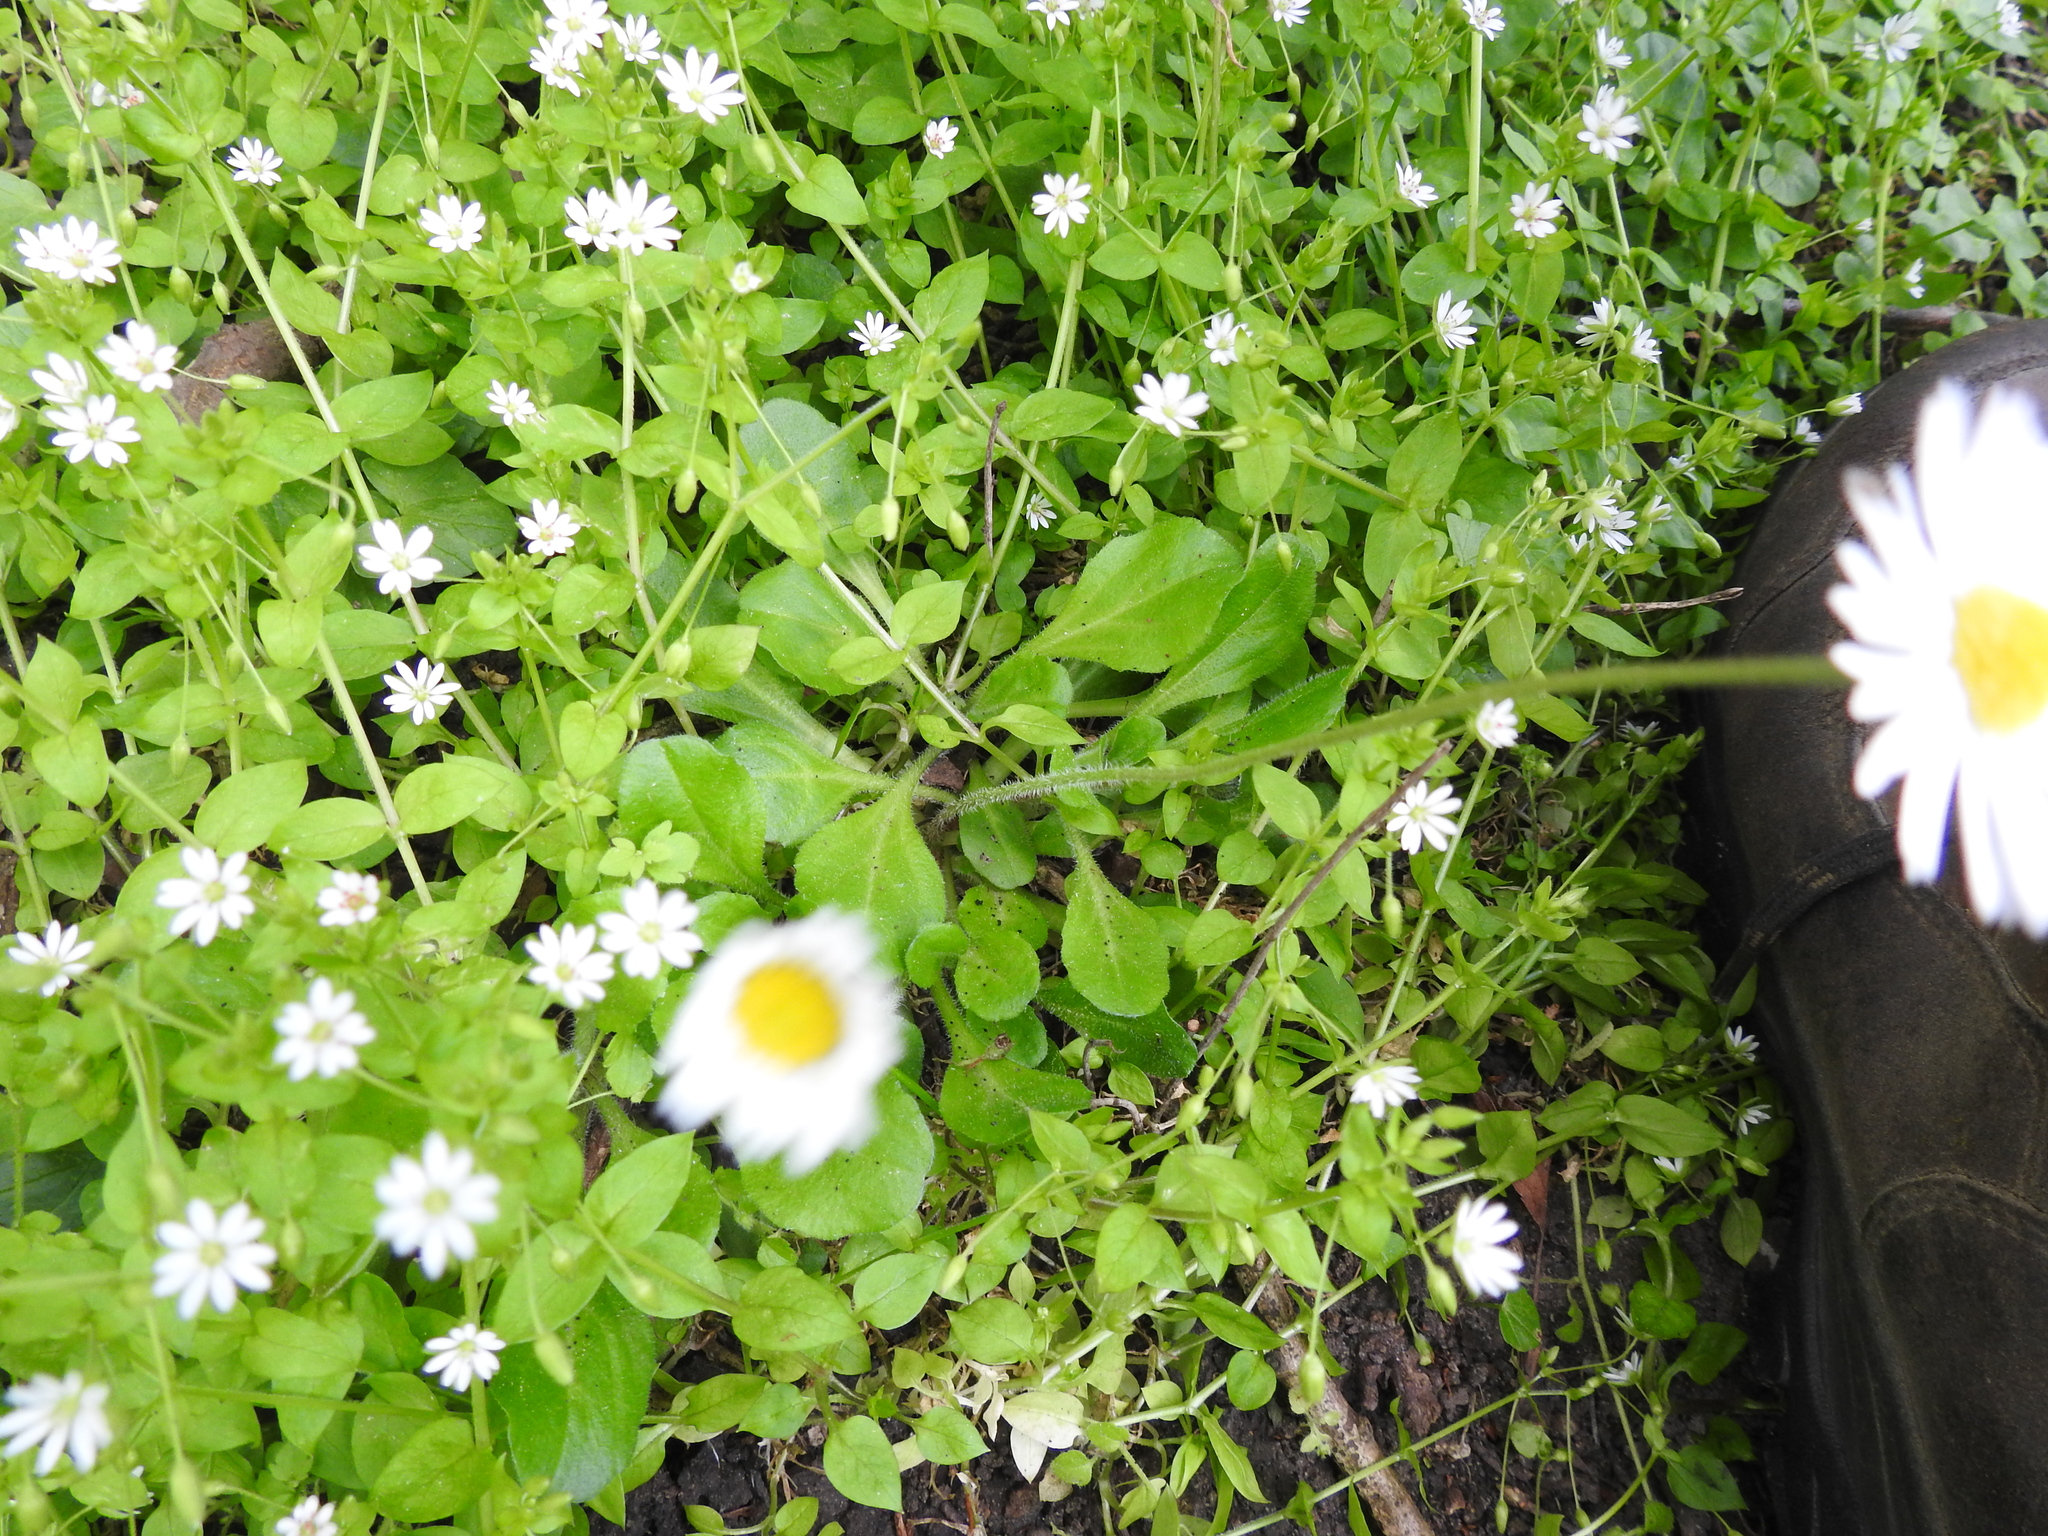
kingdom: Plantae
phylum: Tracheophyta
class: Magnoliopsida
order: Asterales
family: Asteraceae
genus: Bellis
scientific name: Bellis perennis
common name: Lawndaisy
